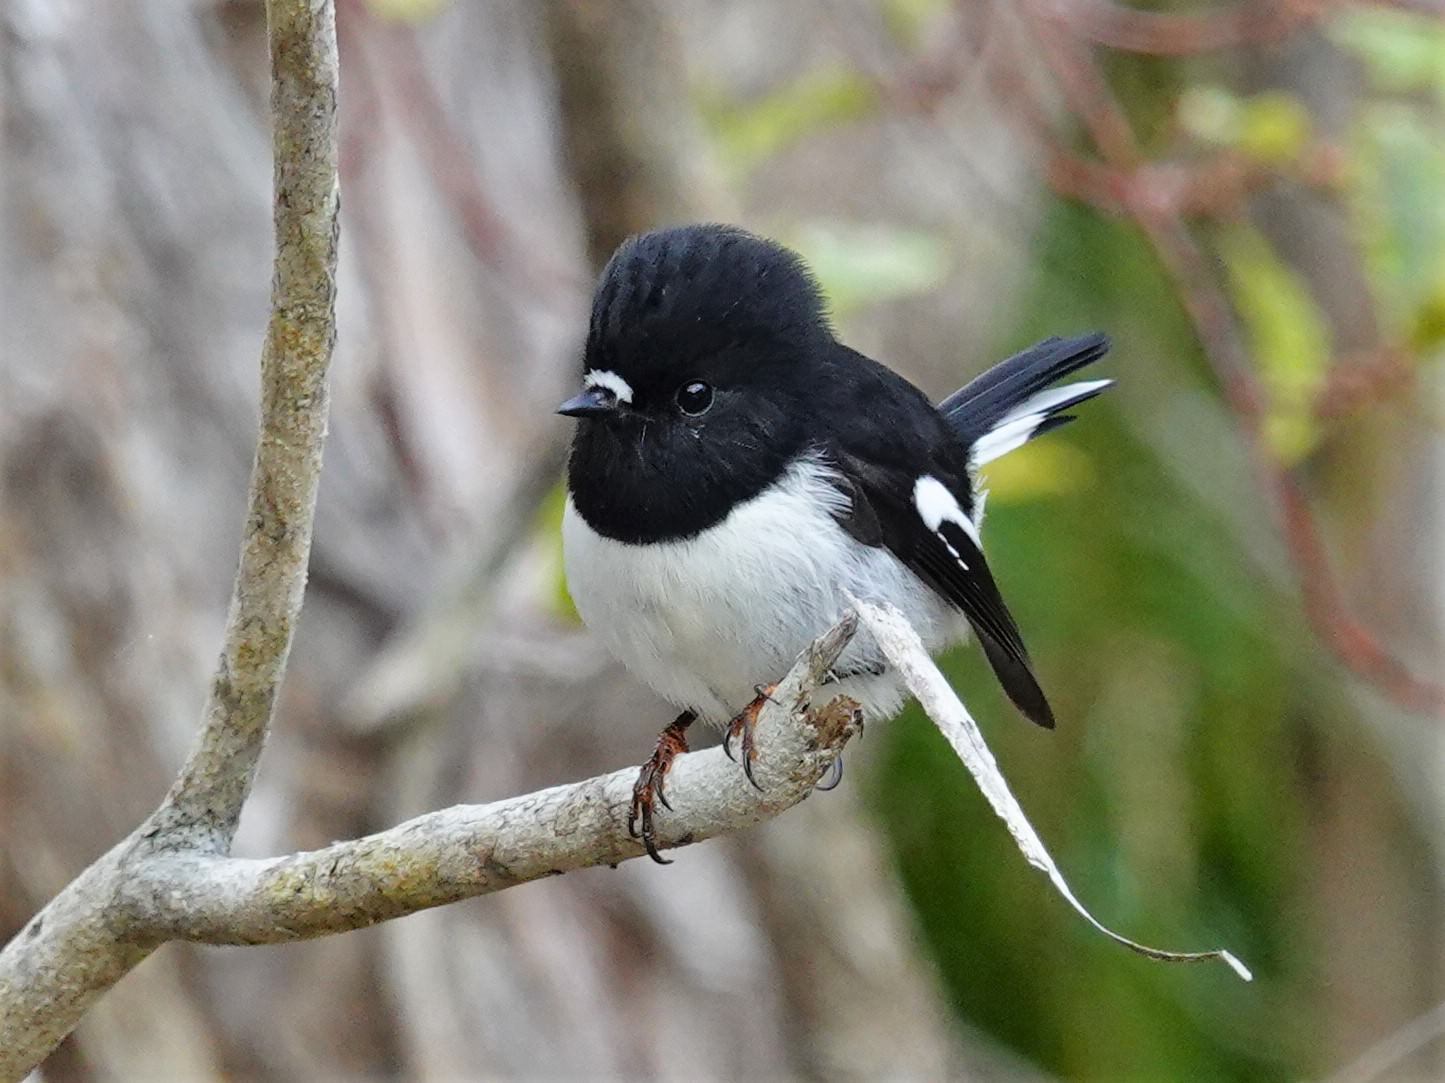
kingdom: Animalia
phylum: Chordata
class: Aves
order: Passeriformes
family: Petroicidae
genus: Petroica
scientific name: Petroica macrocephala
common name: Tomtit
